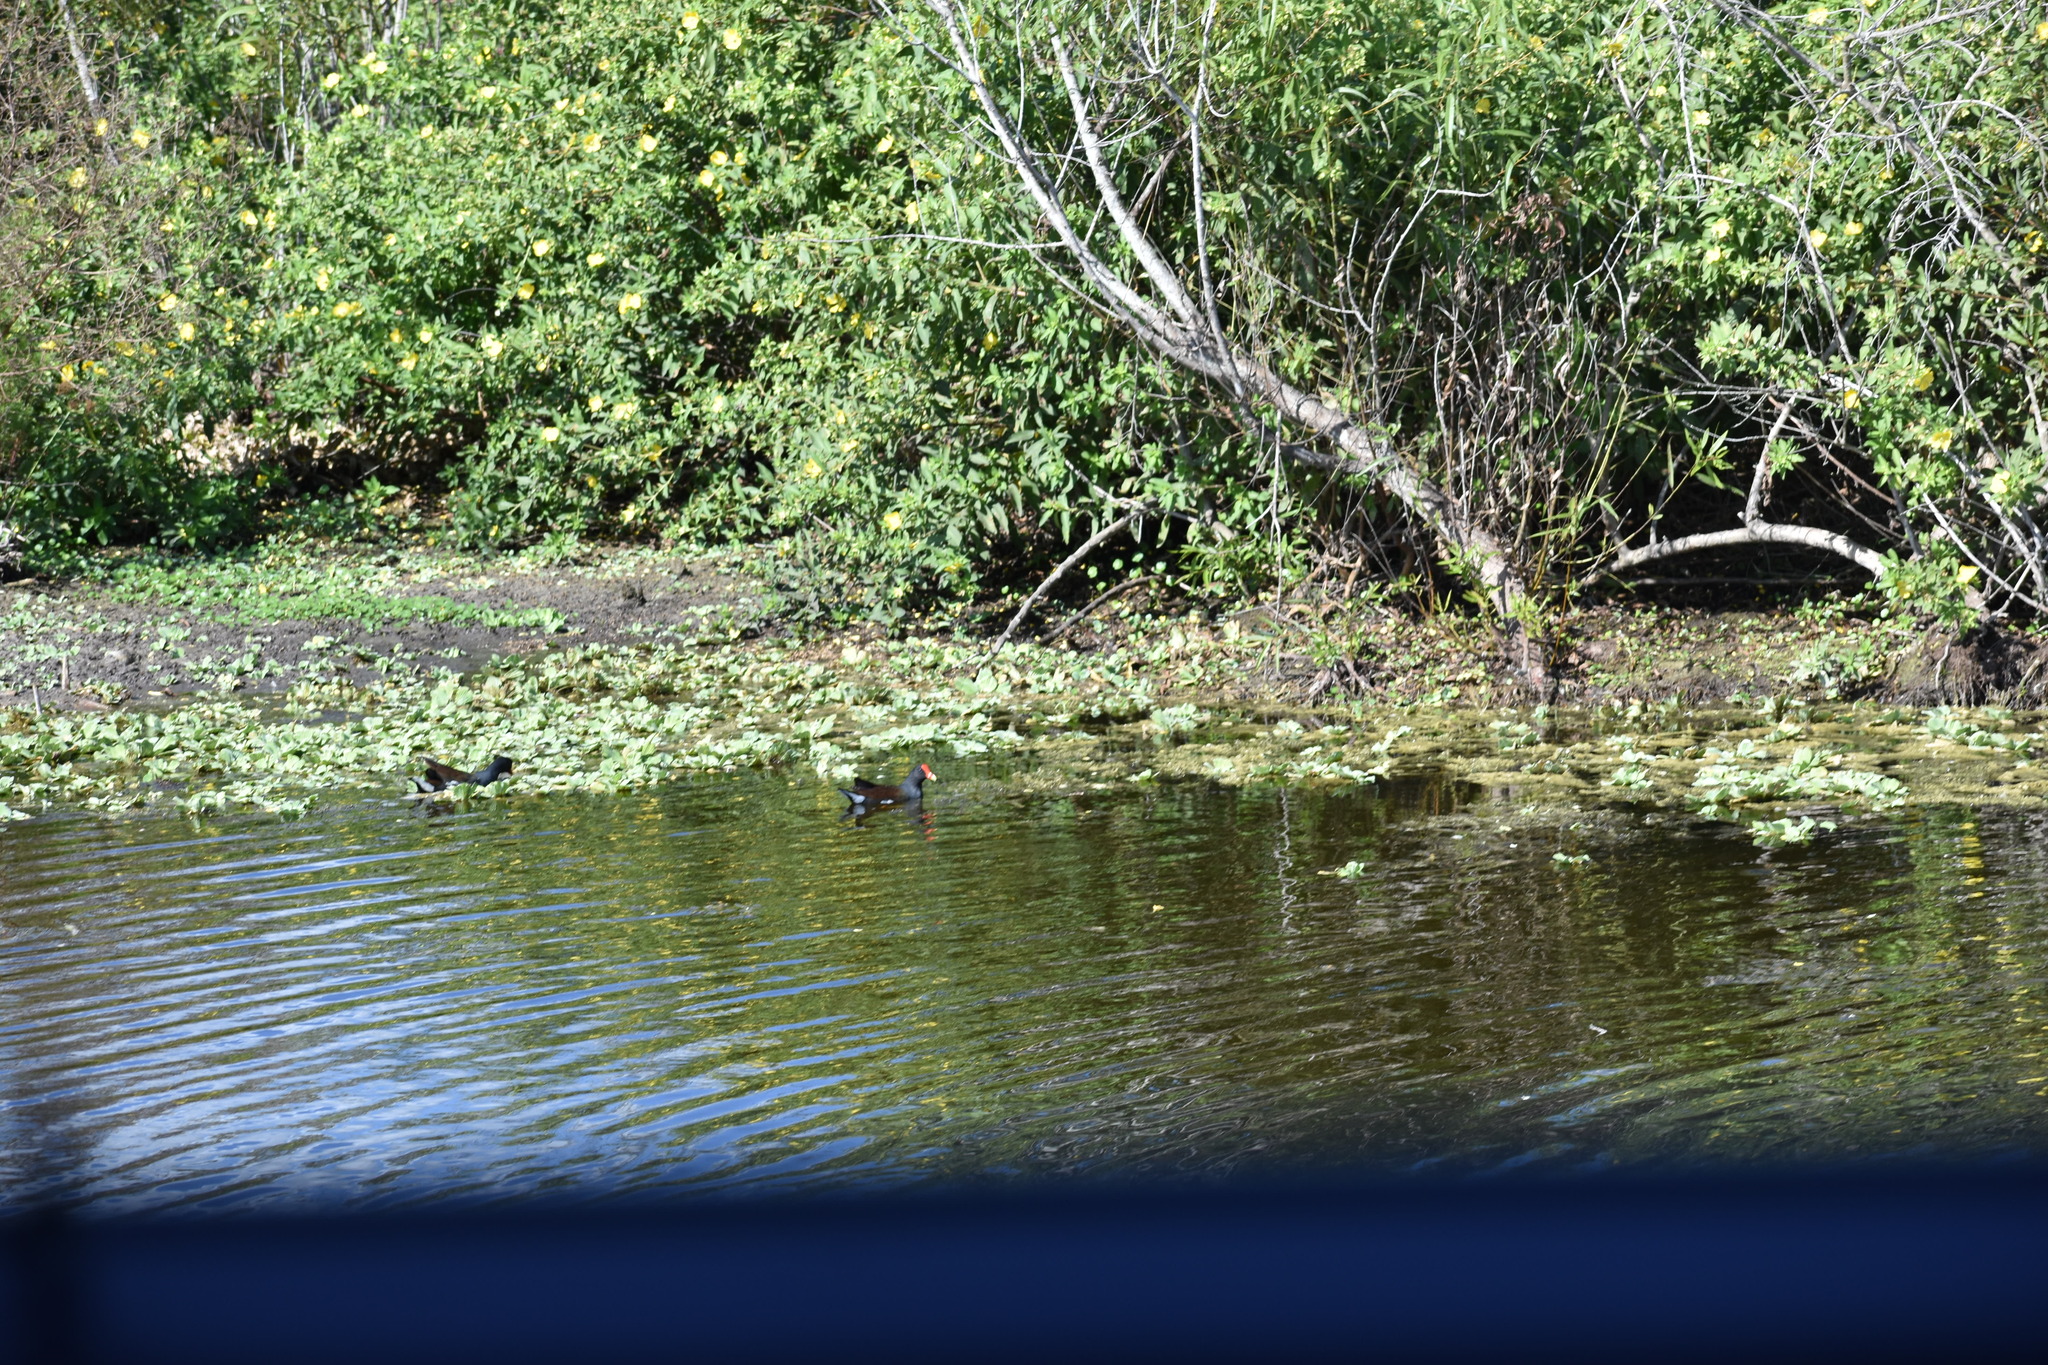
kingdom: Animalia
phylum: Chordata
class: Aves
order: Gruiformes
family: Rallidae
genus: Gallinula
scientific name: Gallinula chloropus
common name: Common moorhen
